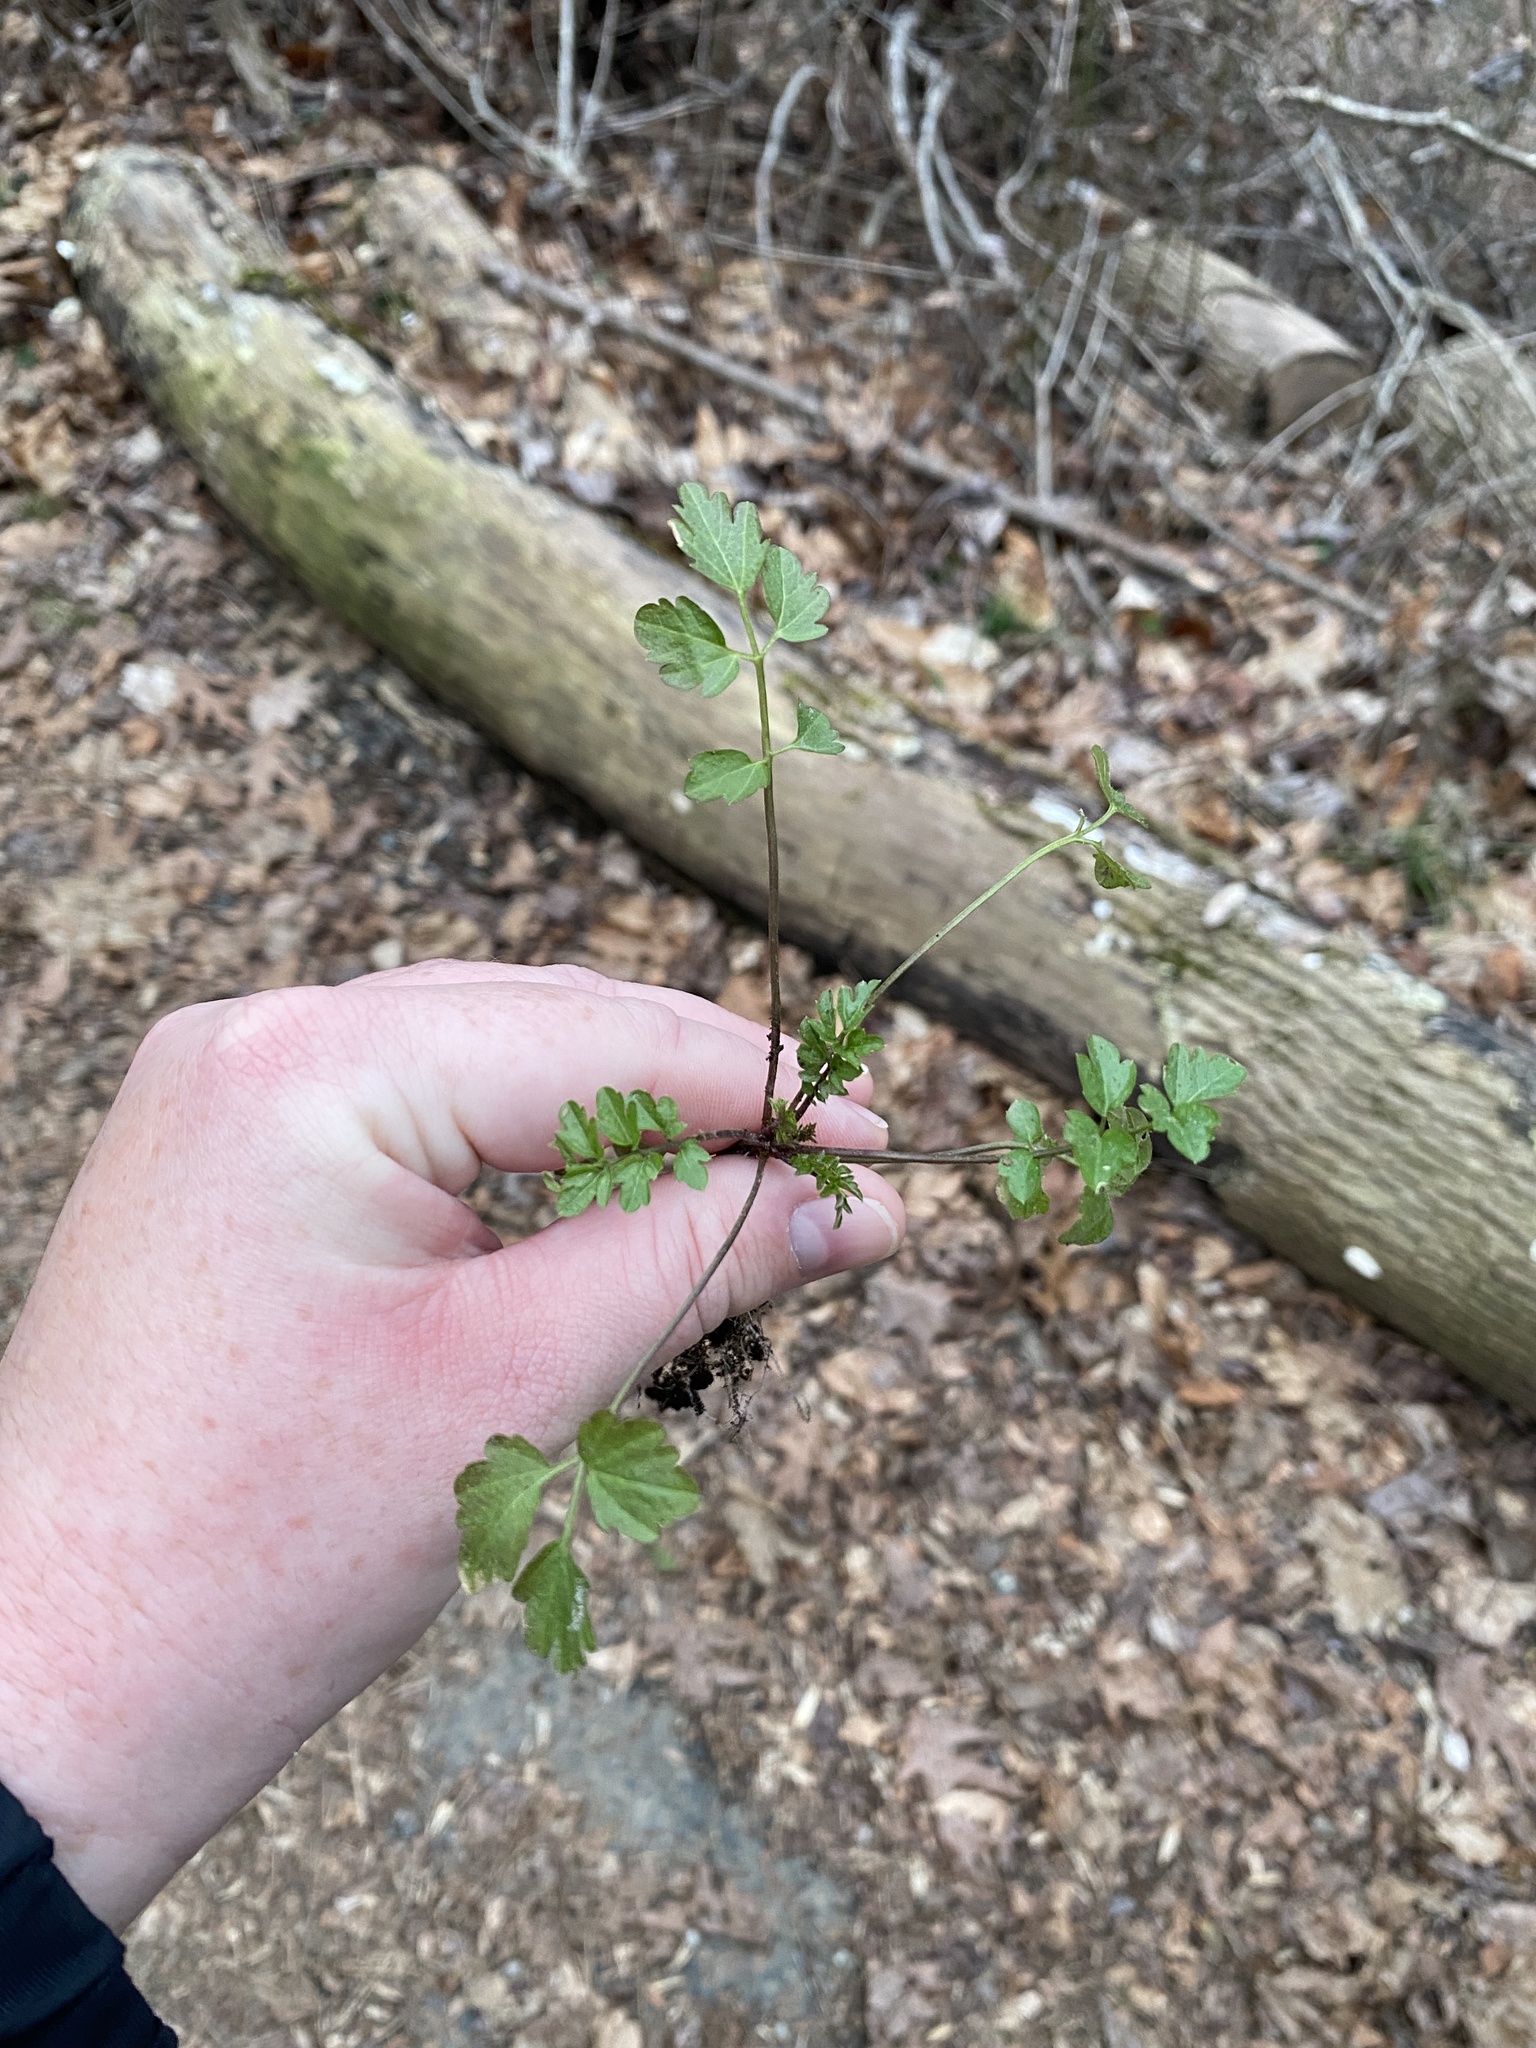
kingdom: Plantae
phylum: Tracheophyta
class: Magnoliopsida
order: Brassicales
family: Brassicaceae
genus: Cardamine
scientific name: Cardamine impatiens
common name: Narrow-leaved bitter-cress
